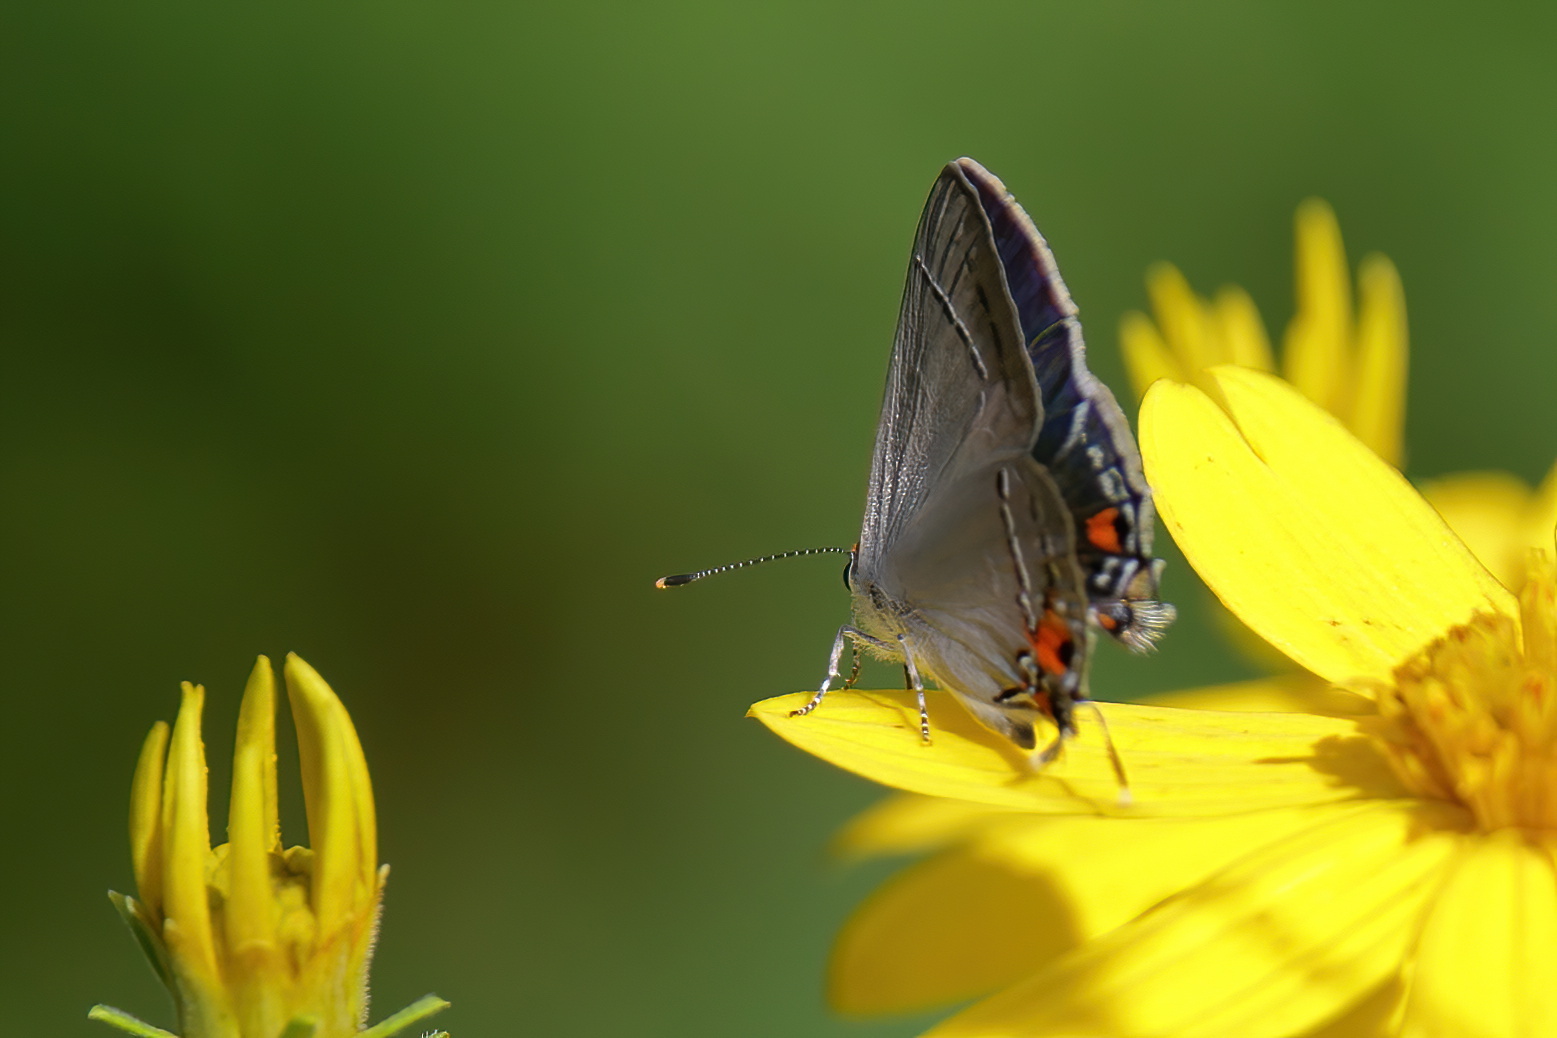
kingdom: Animalia
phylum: Arthropoda
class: Insecta
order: Lepidoptera
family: Lycaenidae
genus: Strymon
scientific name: Strymon melinus
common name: Gray hairstreak
